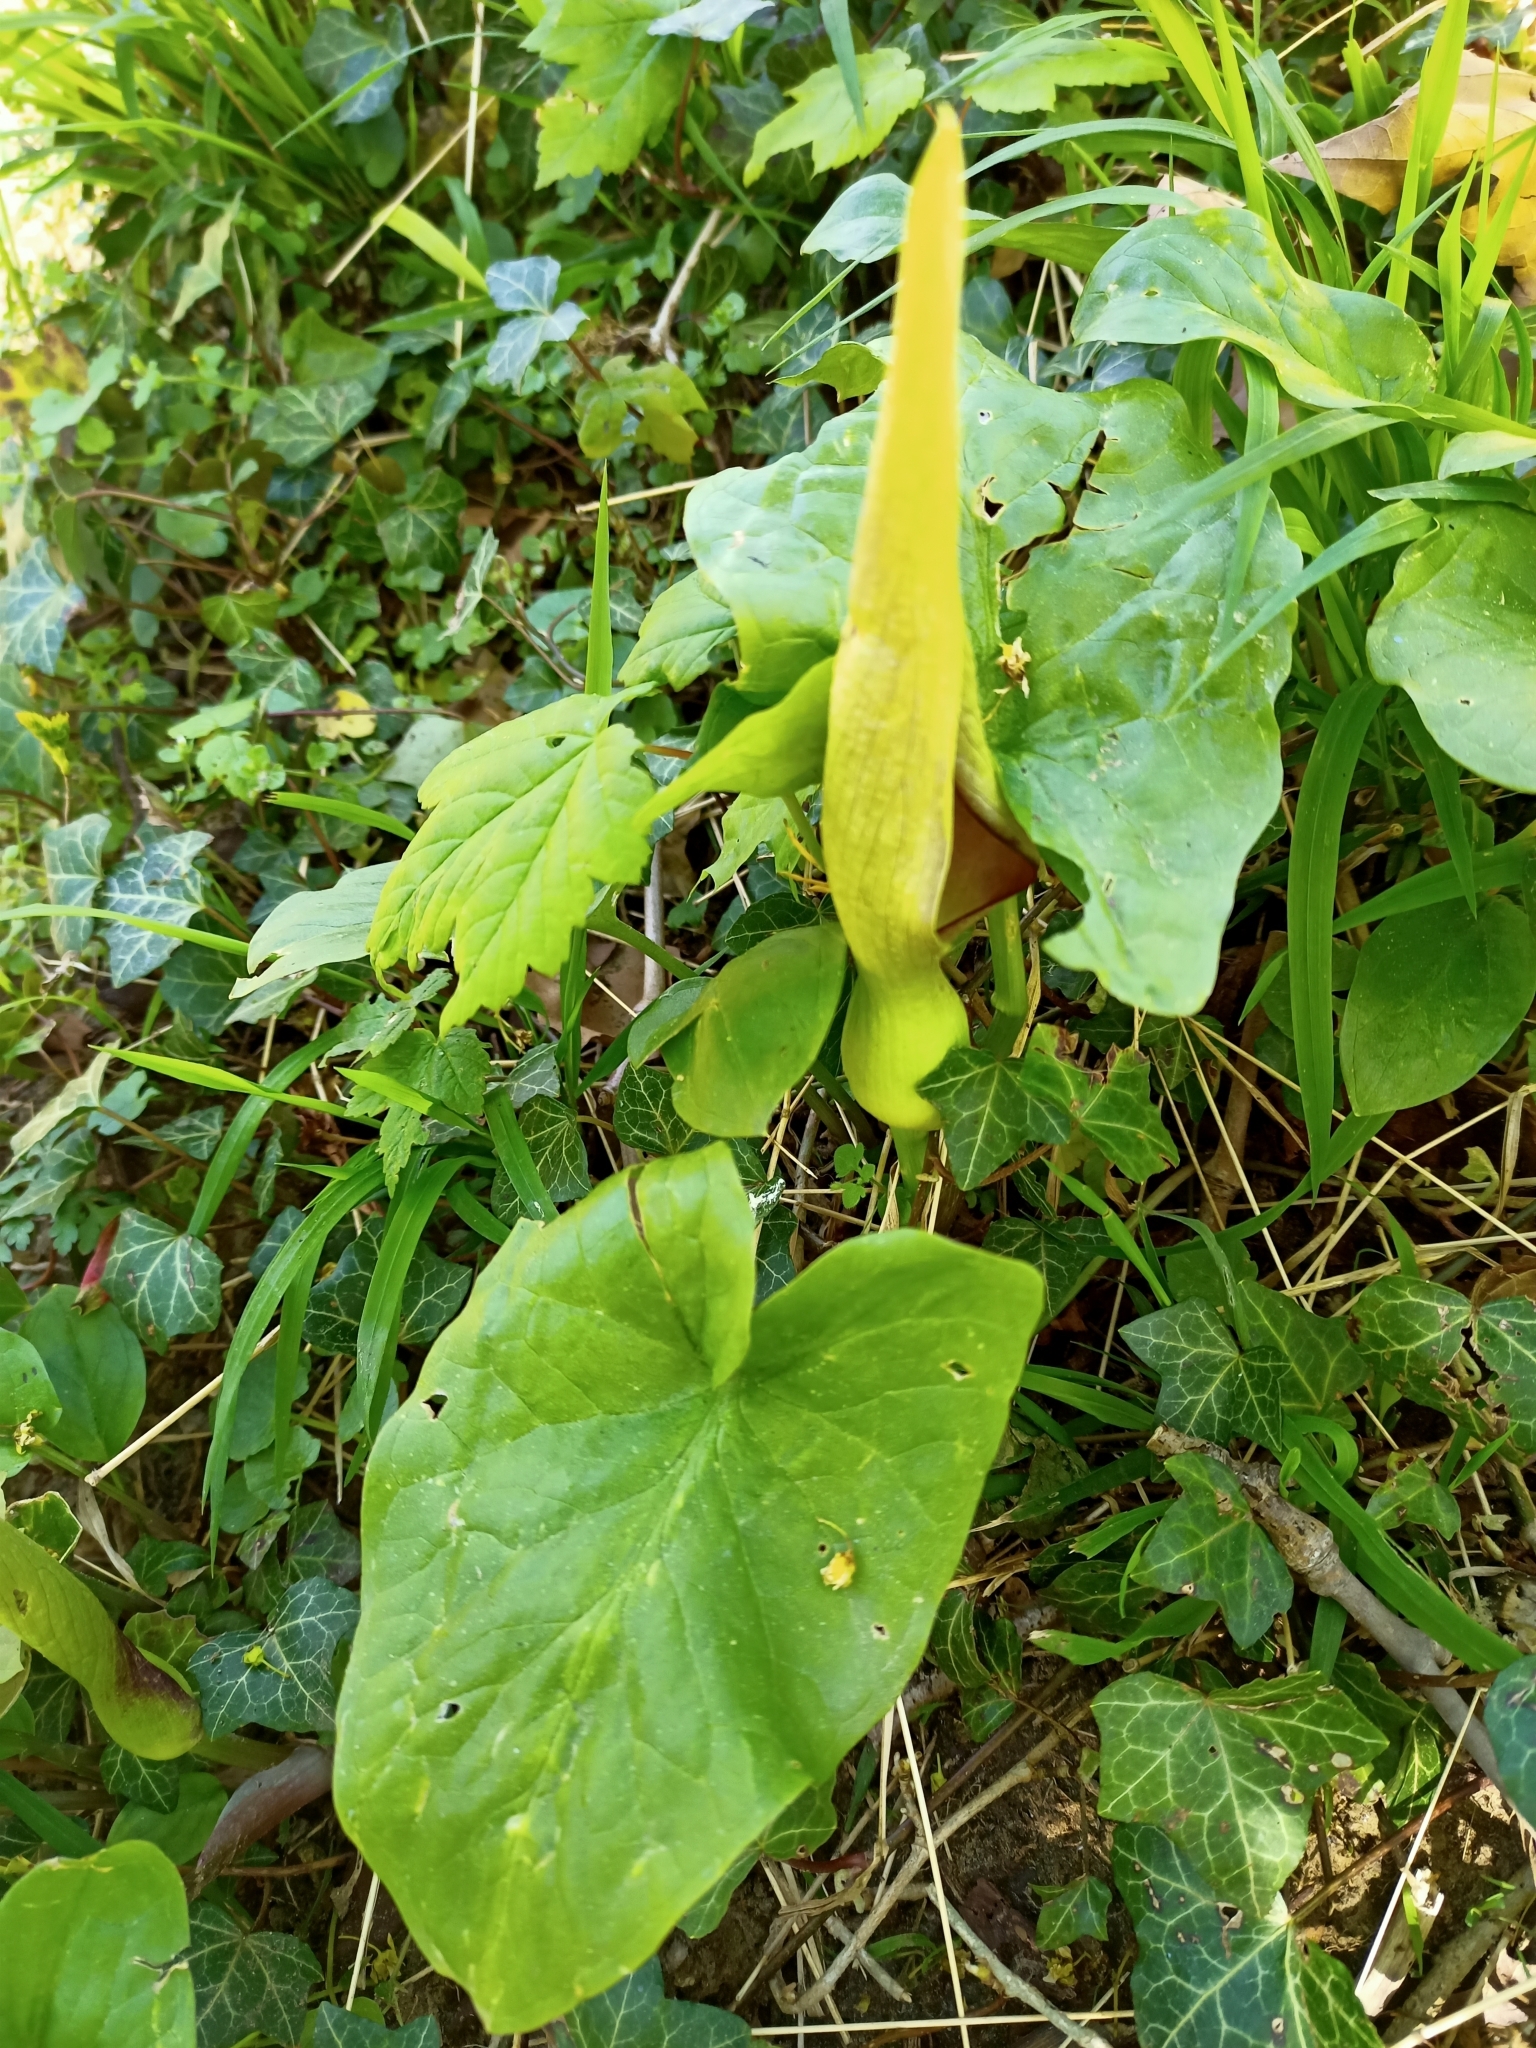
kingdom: Plantae
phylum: Tracheophyta
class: Liliopsida
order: Alismatales
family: Araceae
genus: Arum
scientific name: Arum maculatum
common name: Lords-and-ladies
